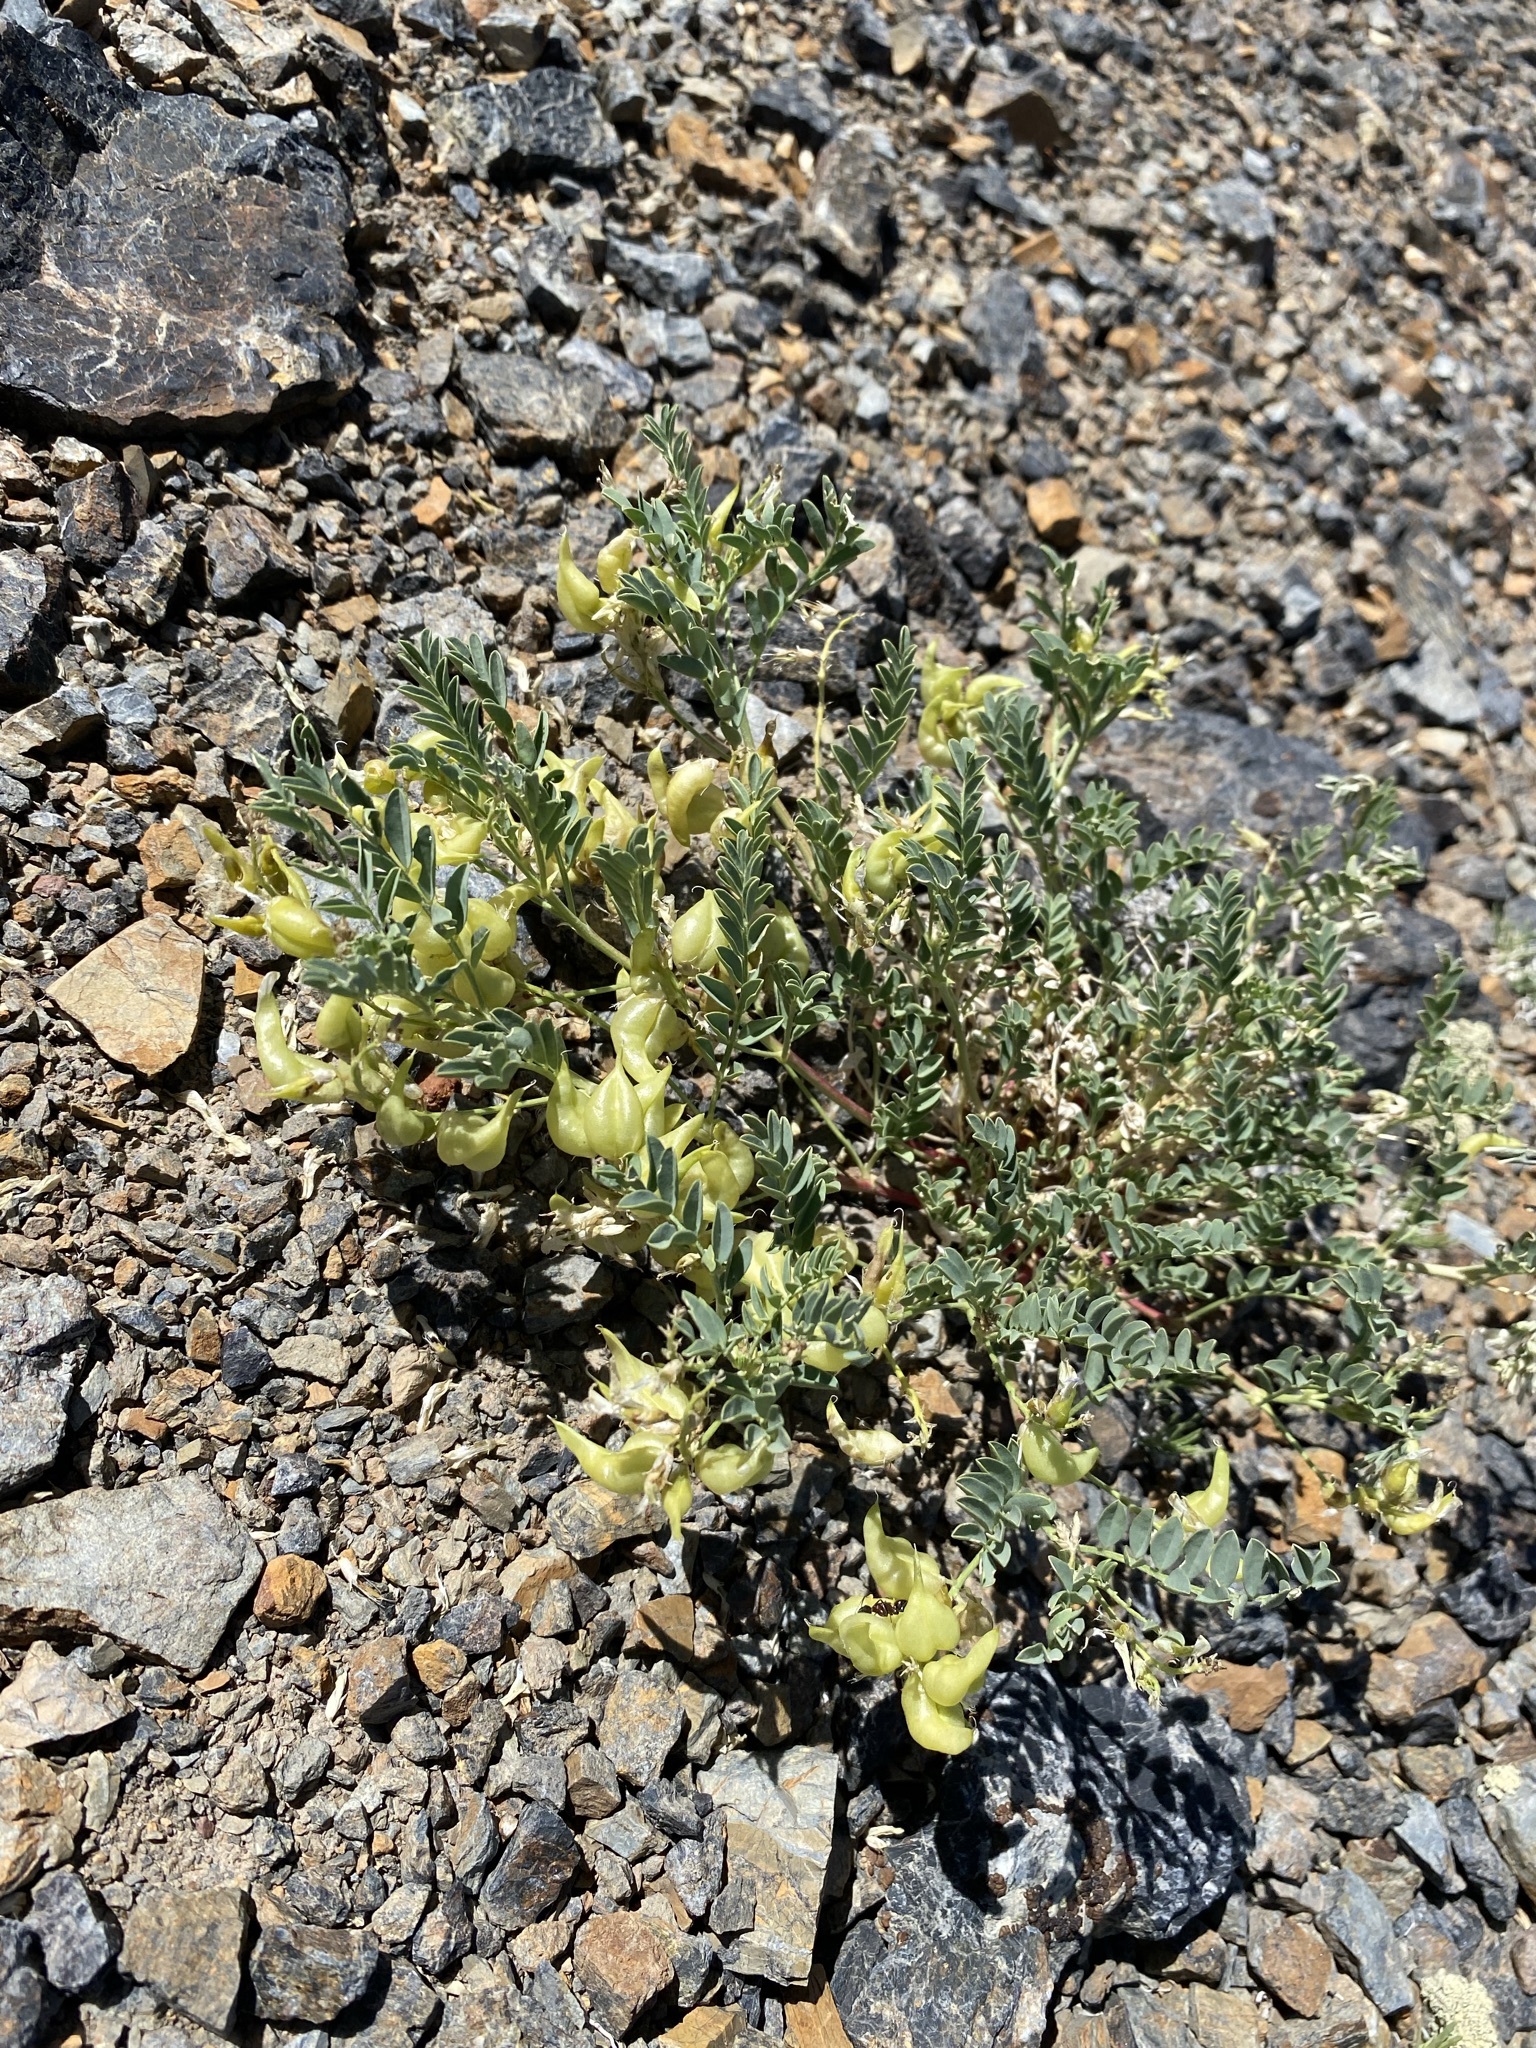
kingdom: Plantae
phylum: Tracheophyta
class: Magnoliopsida
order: Fabales
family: Fabaceae
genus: Astragalus
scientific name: Astragalus lentiginosus
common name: Freckled milkvetch
